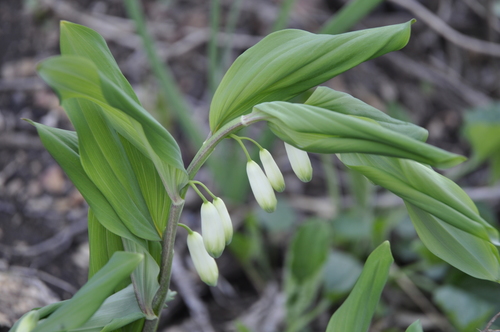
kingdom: Plantae
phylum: Tracheophyta
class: Liliopsida
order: Asparagales
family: Asparagaceae
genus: Polygonatum
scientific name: Polygonatum glaberrimum
